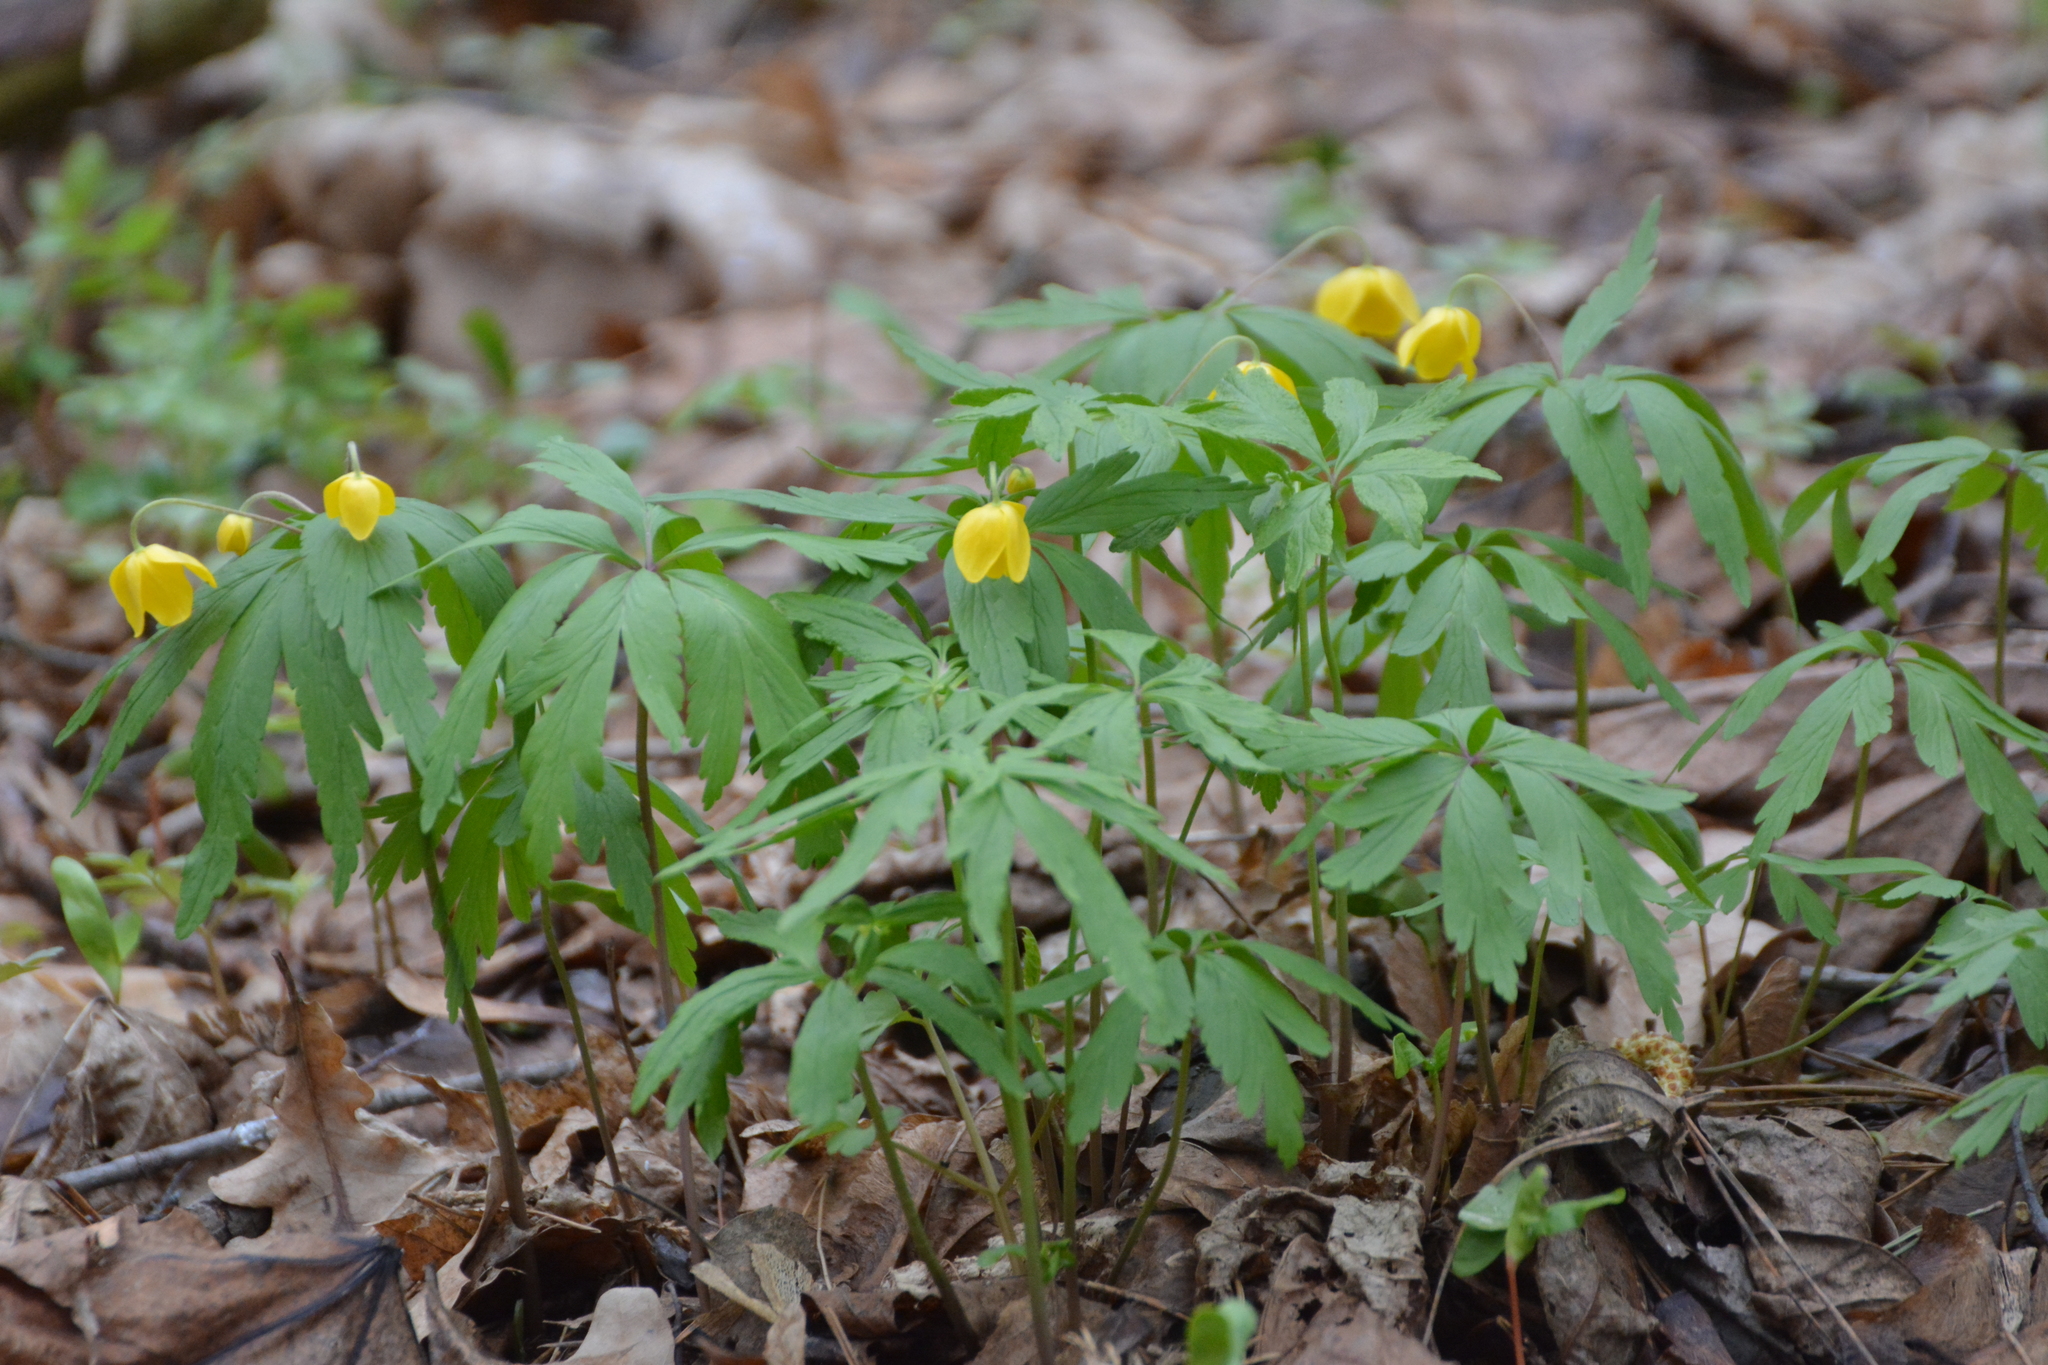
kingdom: Plantae
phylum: Tracheophyta
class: Magnoliopsida
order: Ranunculales
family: Ranunculaceae
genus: Anemone
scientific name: Anemone ranunculoides
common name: Yellow anemone
